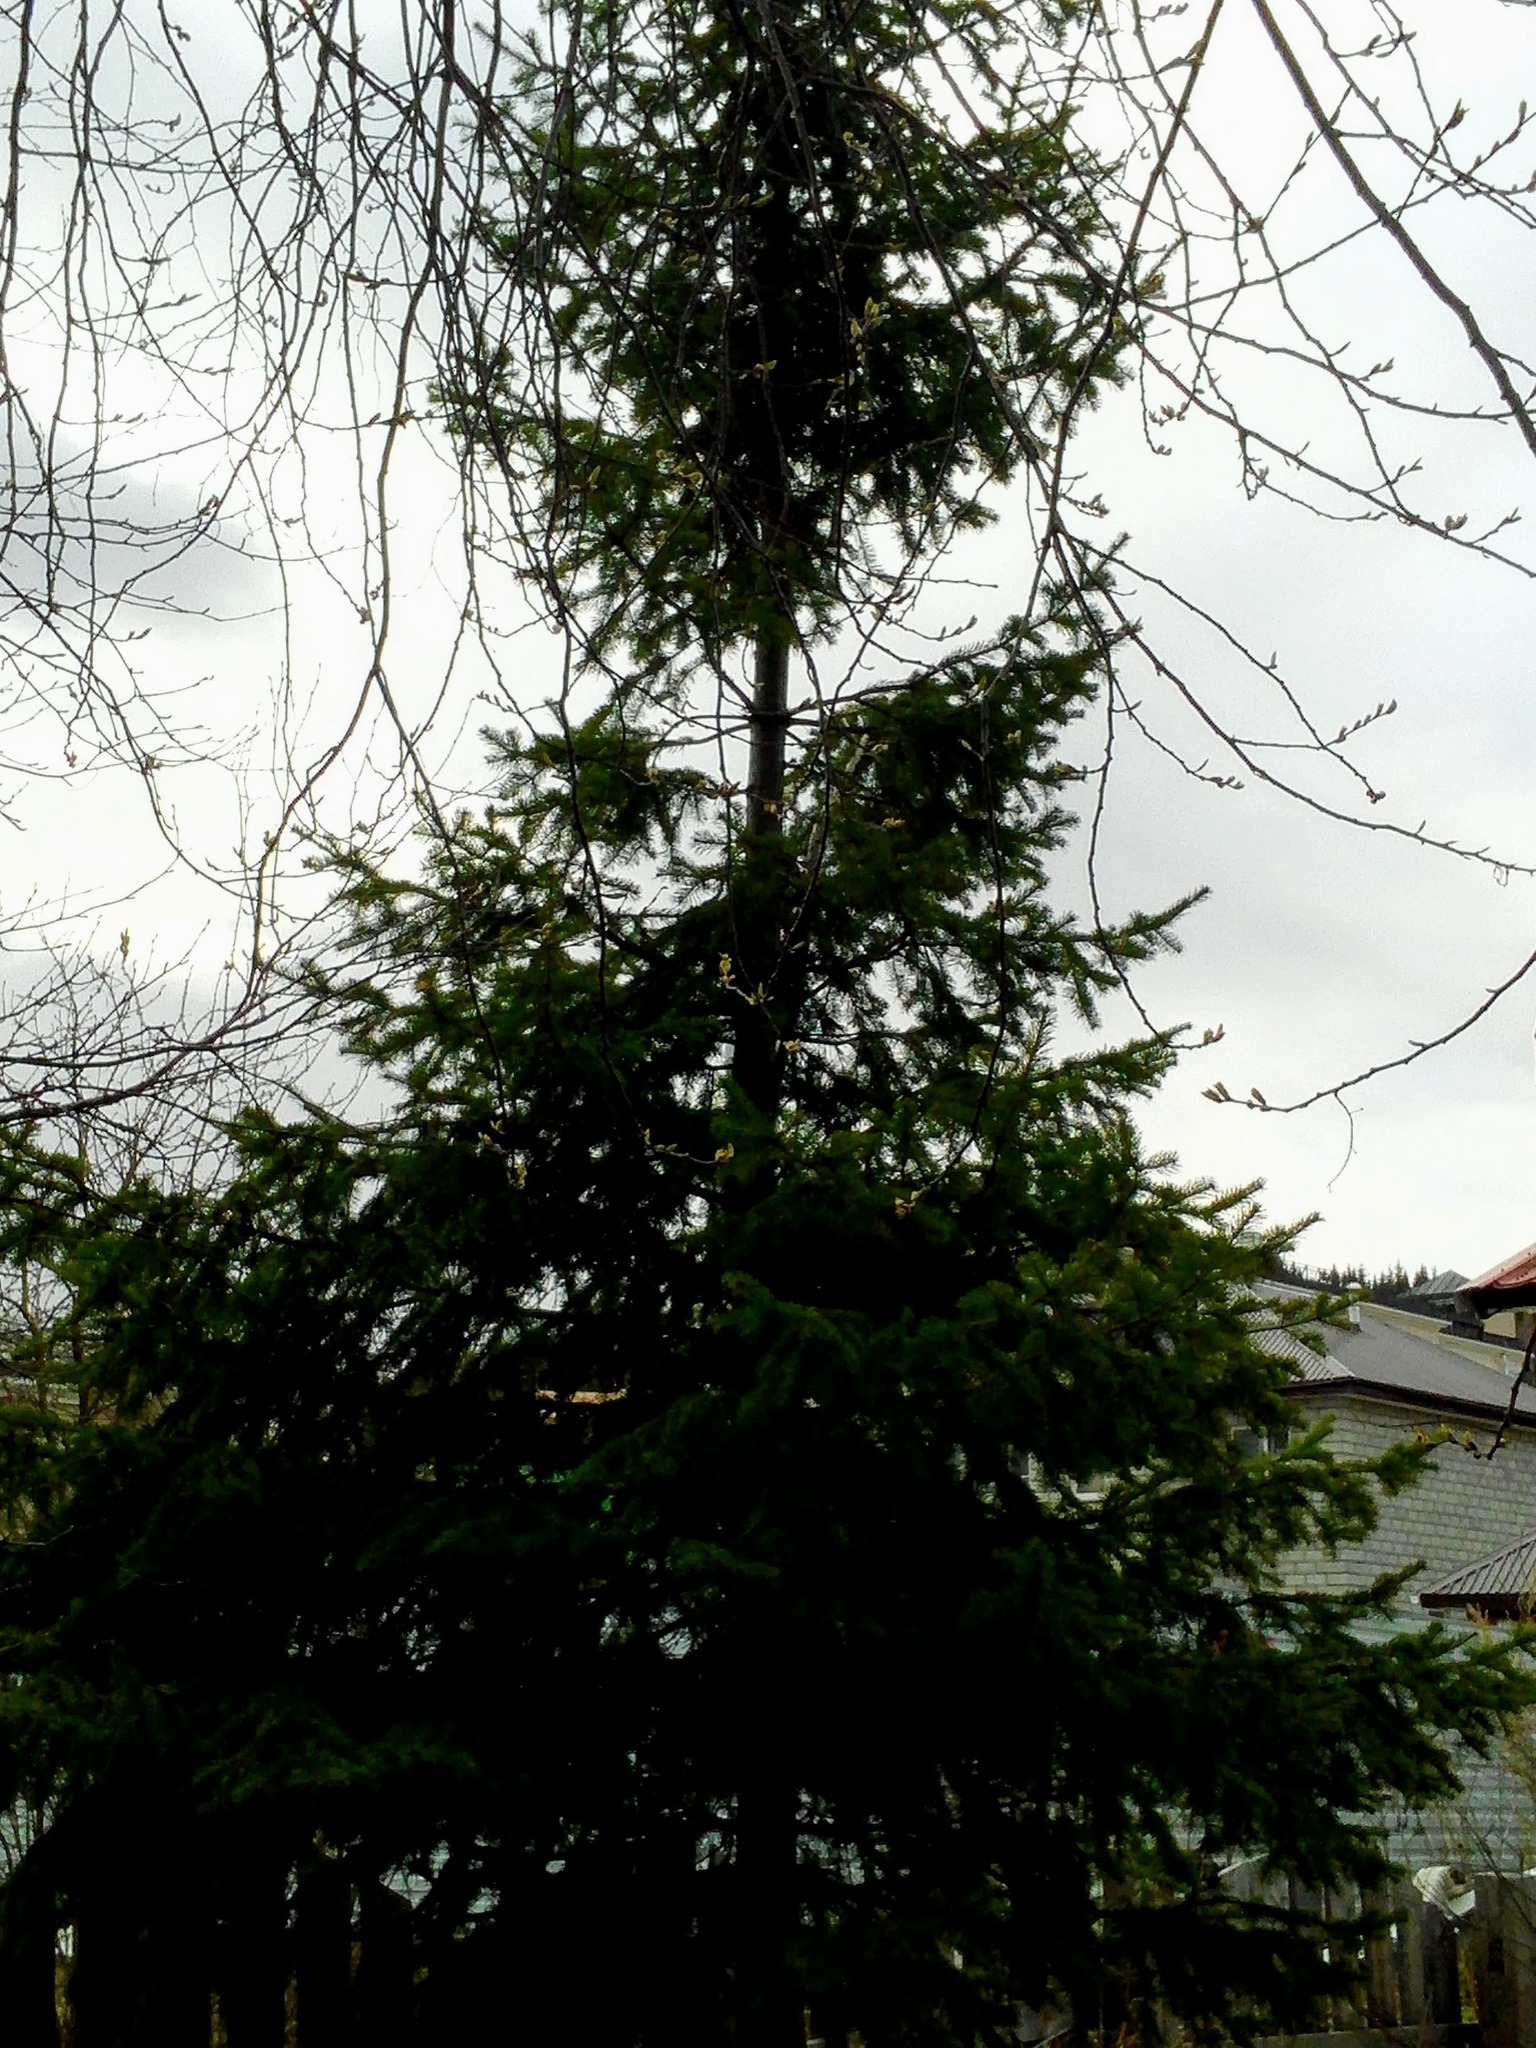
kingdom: Plantae
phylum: Tracheophyta
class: Pinopsida
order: Pinales
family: Pinaceae
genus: Abies
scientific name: Abies sibirica
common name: Siberian fir
